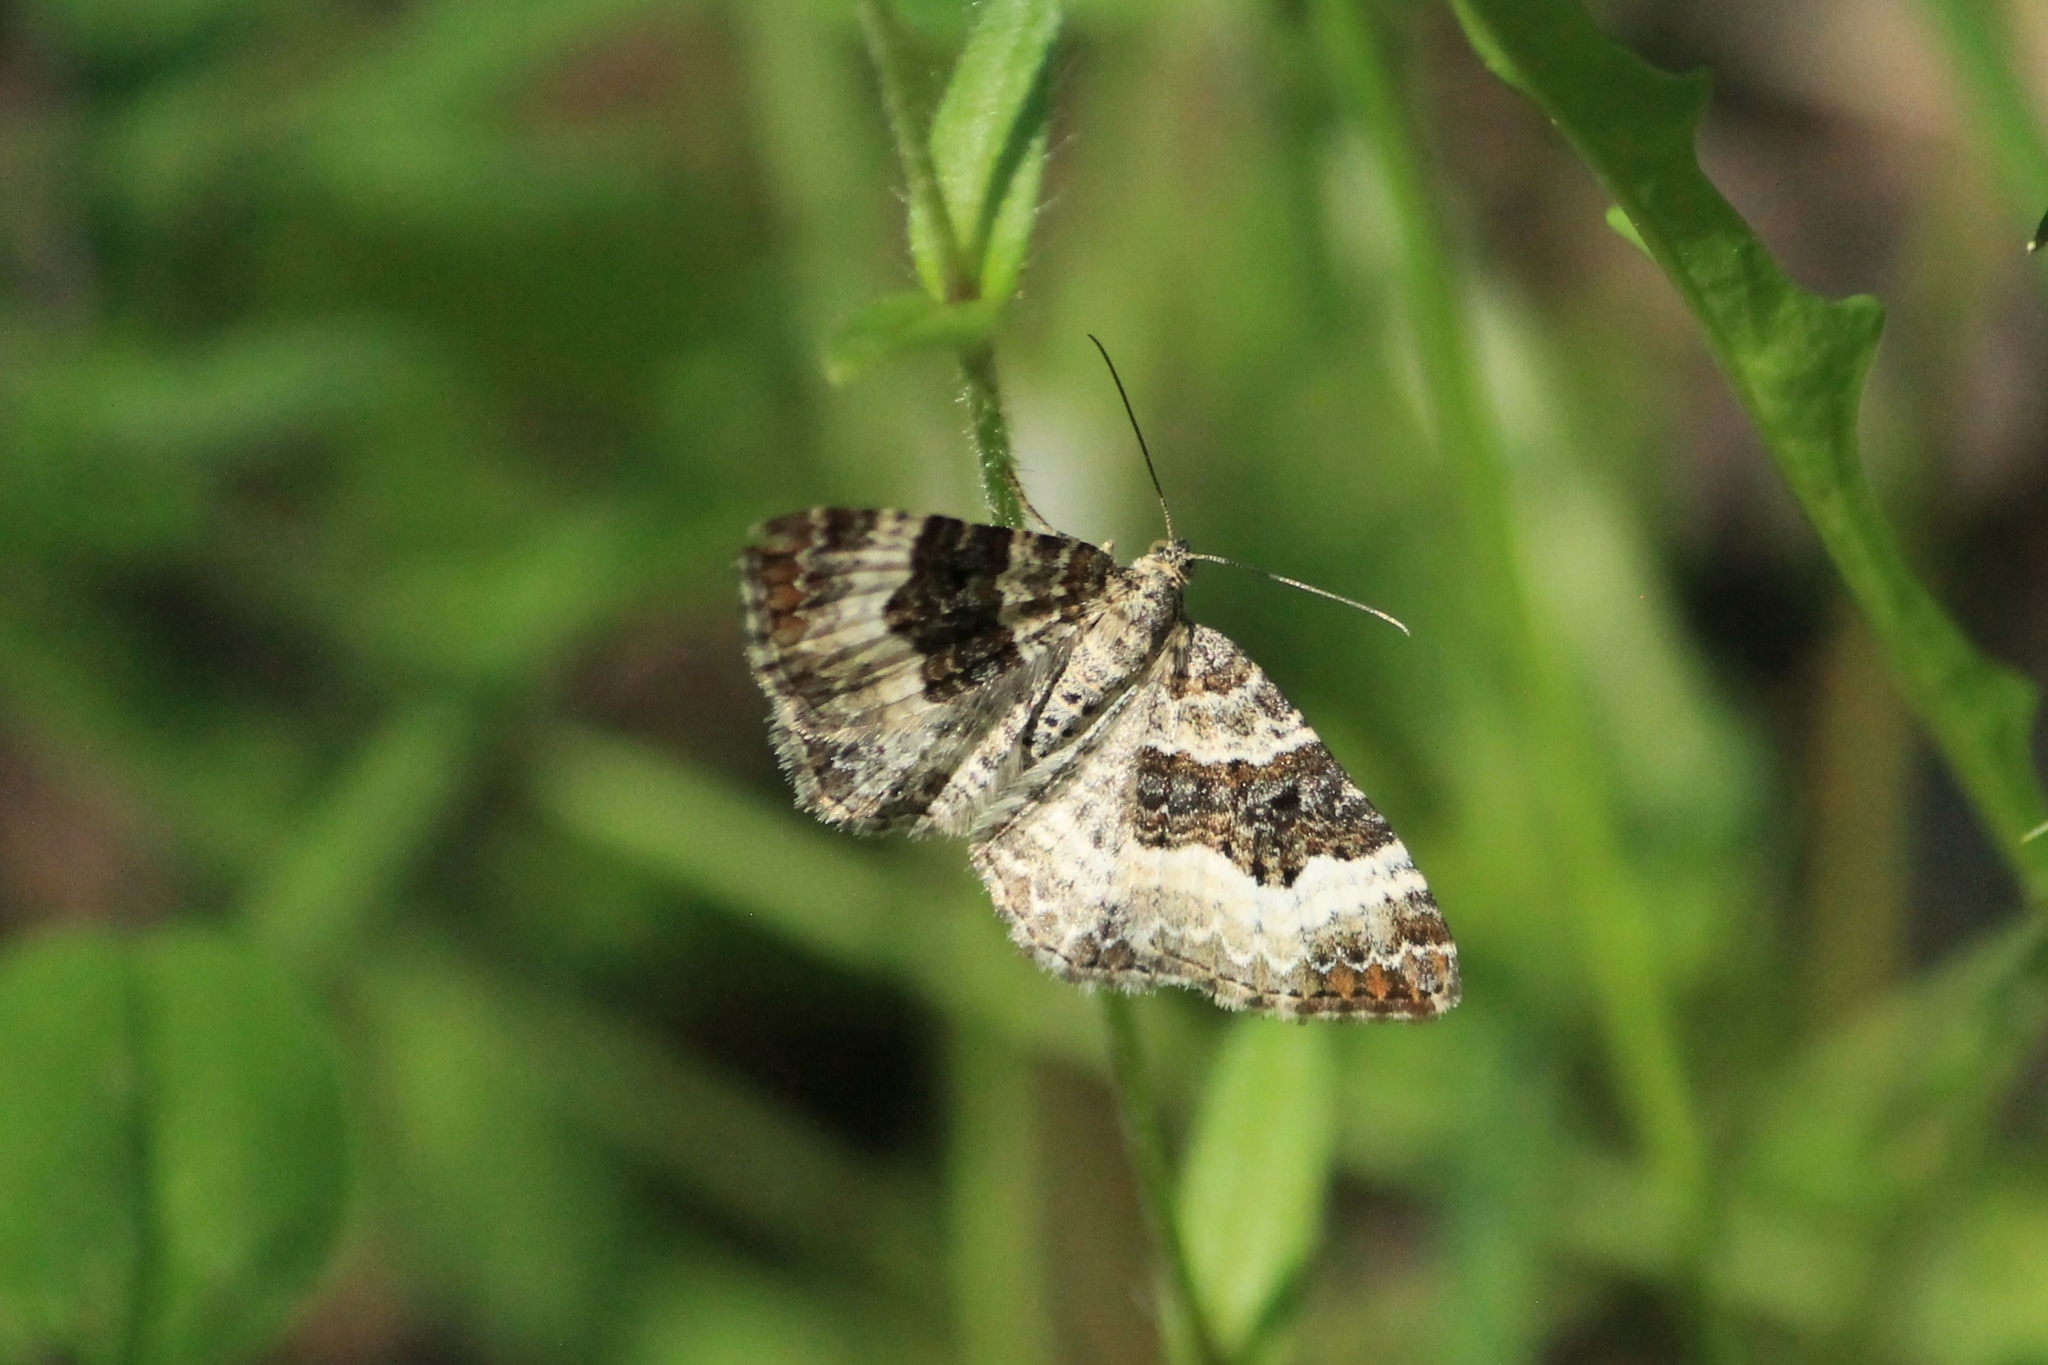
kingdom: Animalia
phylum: Arthropoda
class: Insecta
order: Lepidoptera
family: Geometridae
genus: Epirrhoe
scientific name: Epirrhoe alternata
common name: Common carpet
